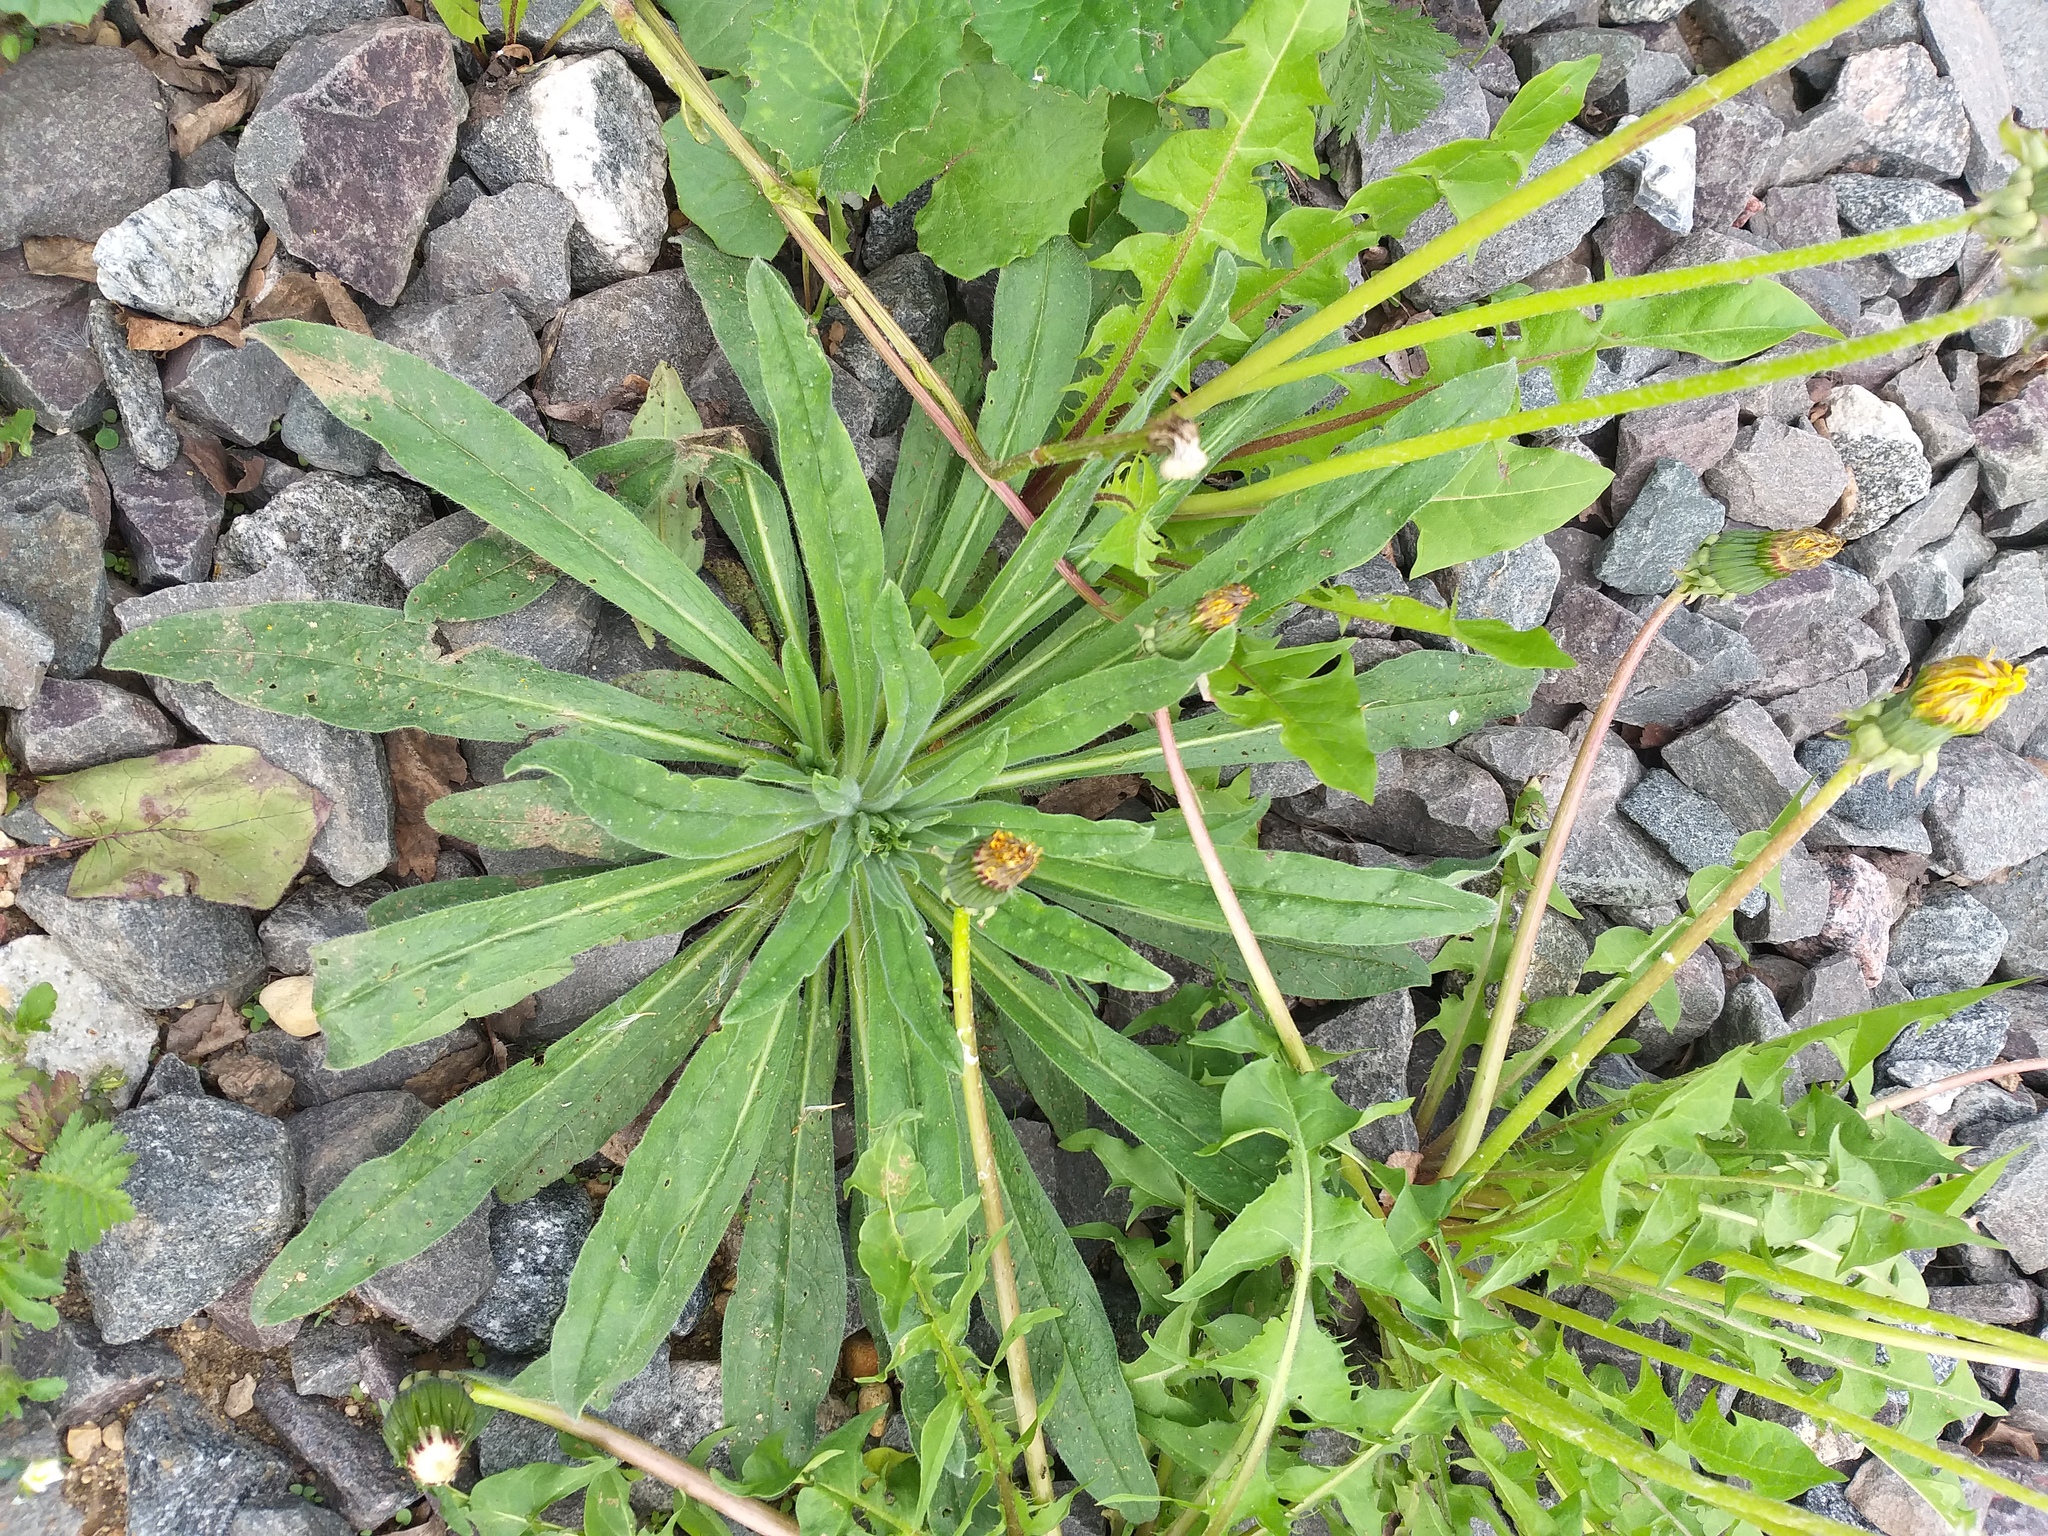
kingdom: Plantae
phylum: Tracheophyta
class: Magnoliopsida
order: Boraginales
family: Boraginaceae
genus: Echium
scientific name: Echium vulgare
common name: Common viper's bugloss
